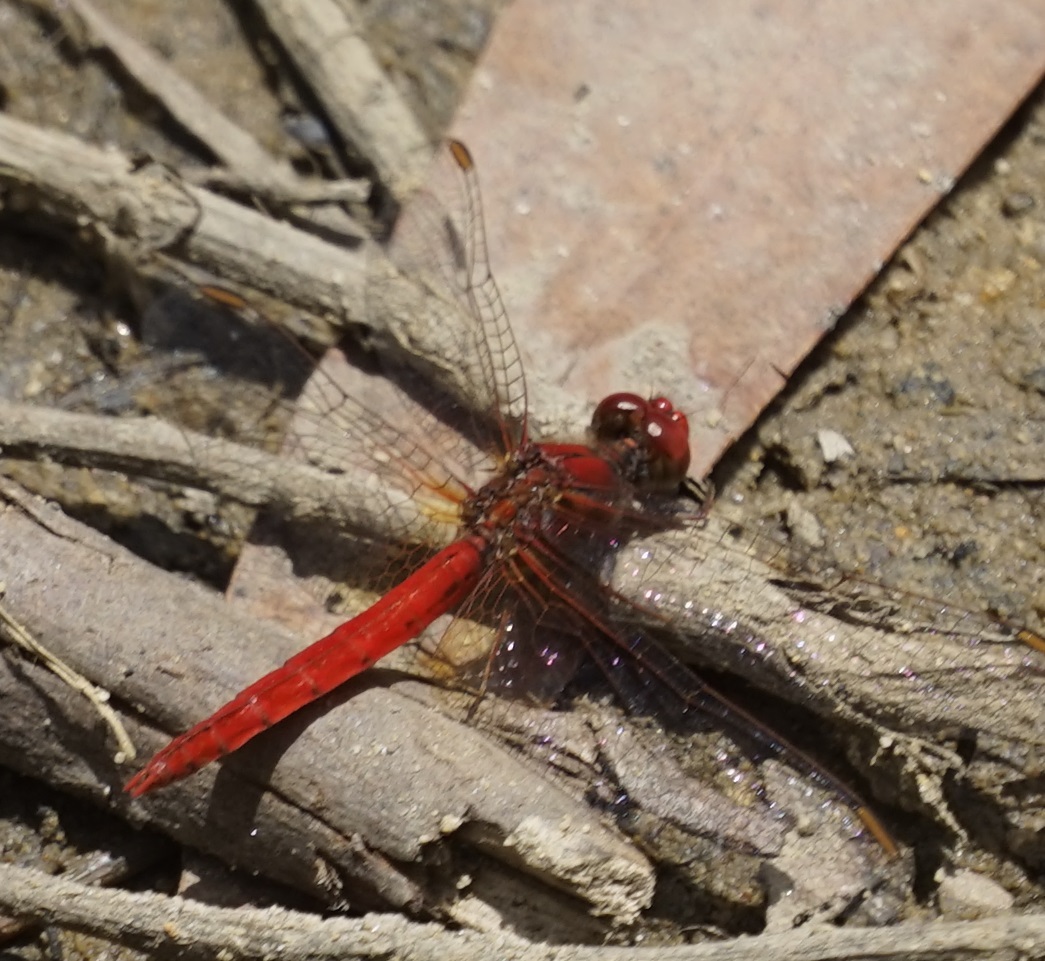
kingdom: Animalia
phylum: Arthropoda
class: Insecta
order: Odonata
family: Libellulidae
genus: Diplacodes
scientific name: Diplacodes haematodes
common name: Scarlet percher
